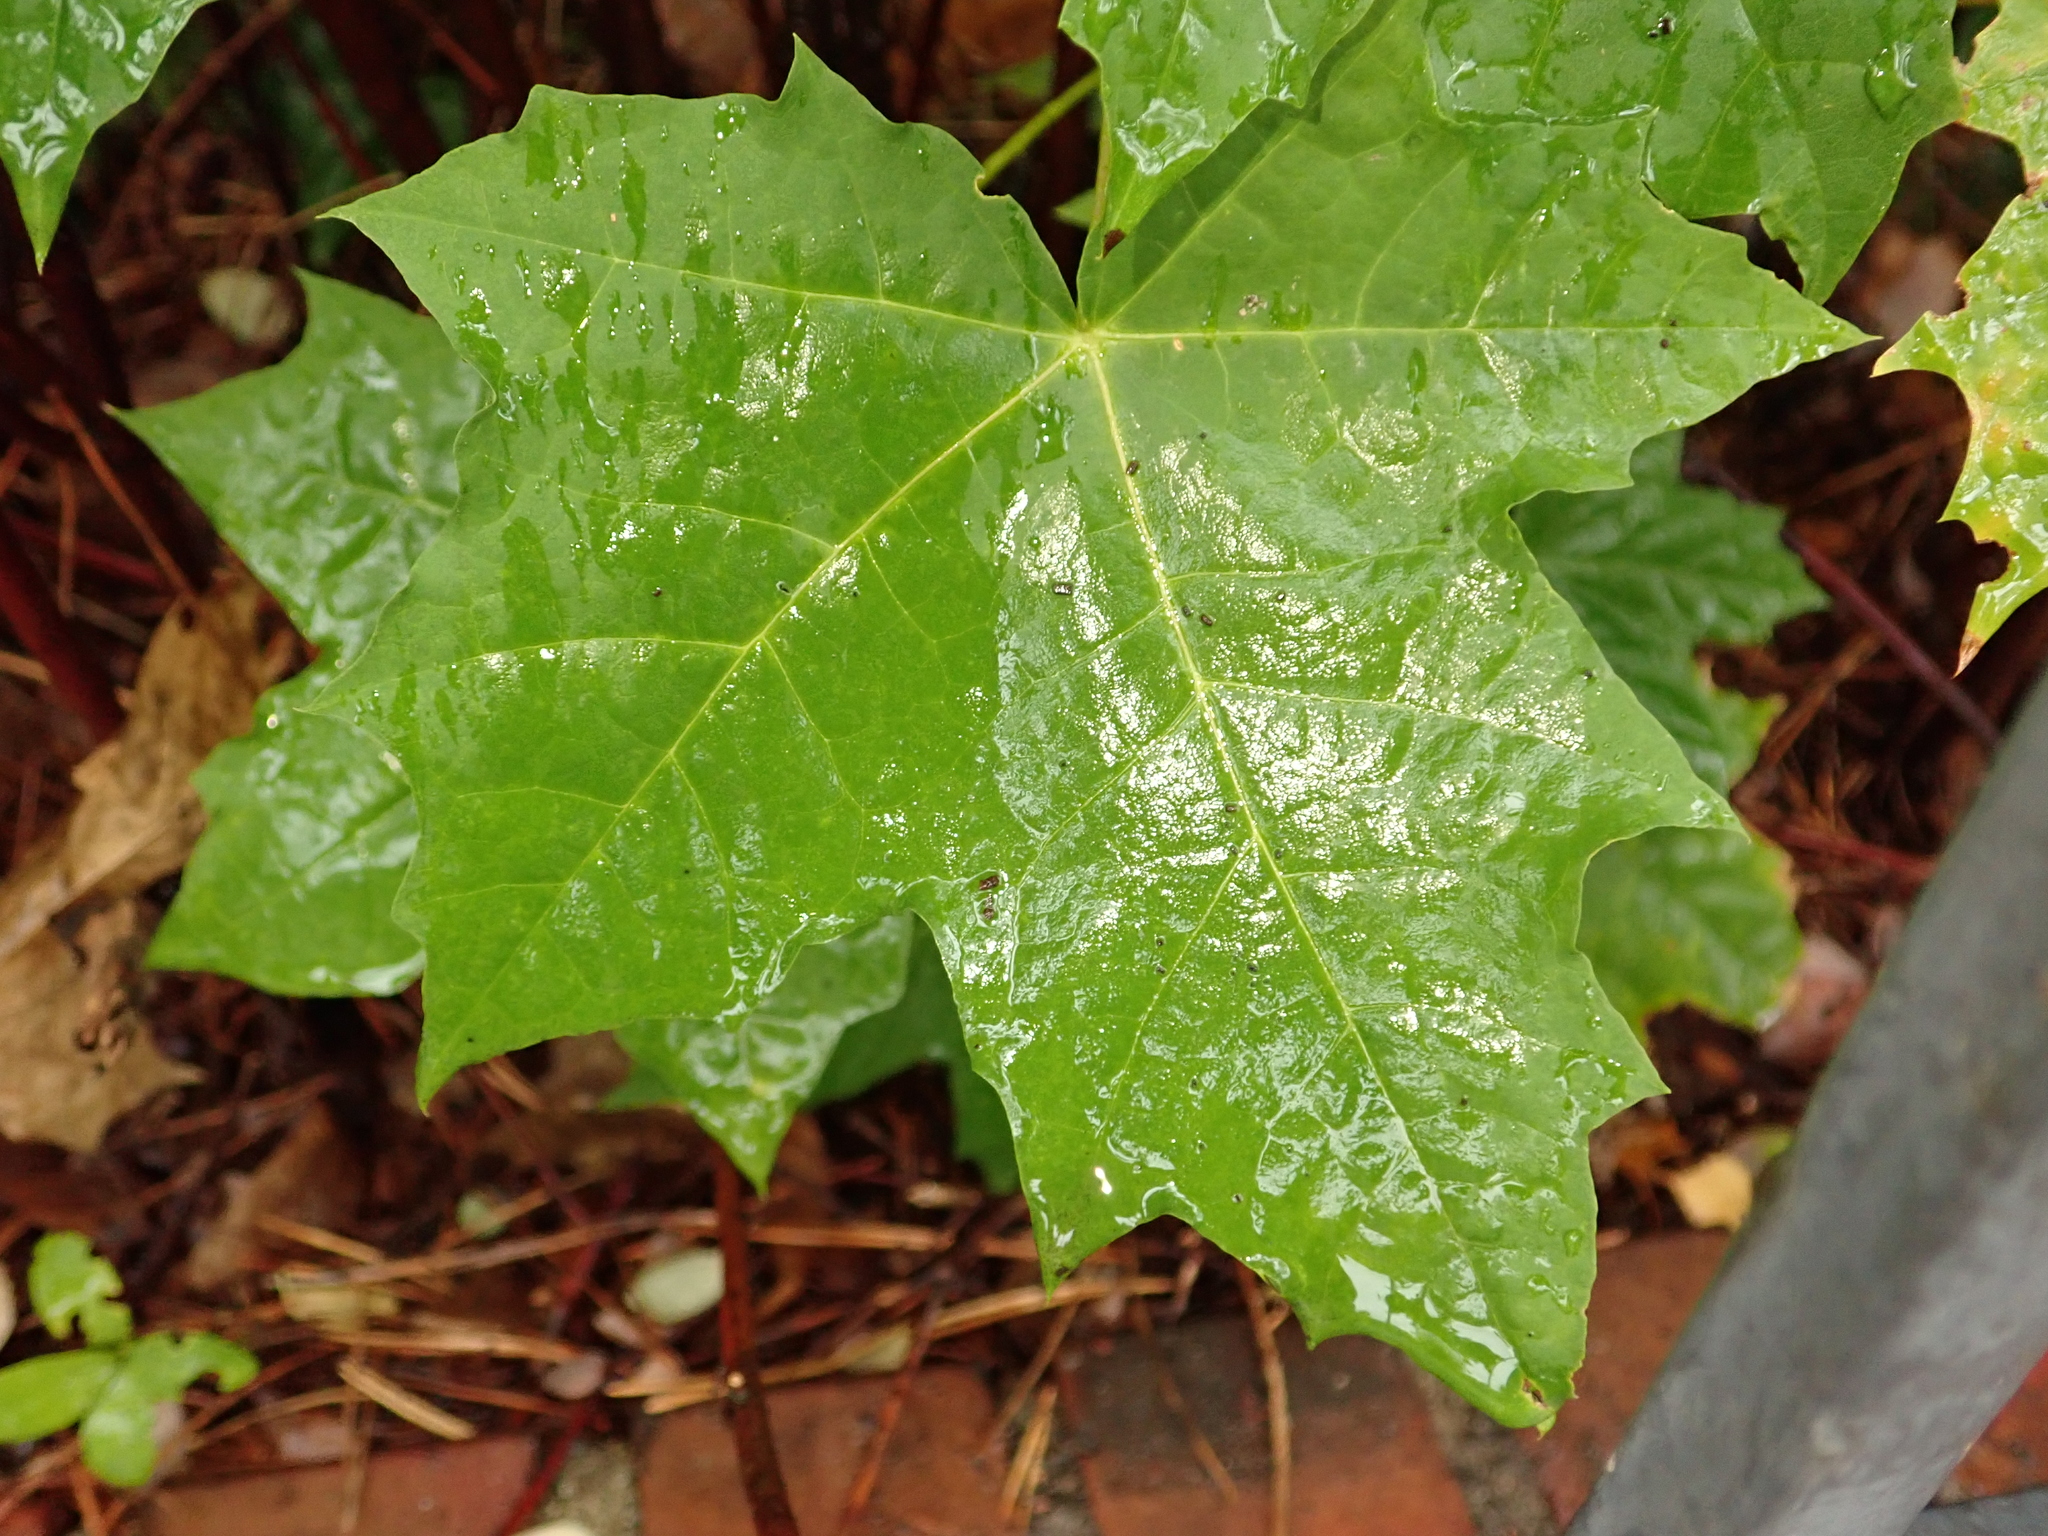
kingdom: Plantae
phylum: Tracheophyta
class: Magnoliopsida
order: Sapindales
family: Sapindaceae
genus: Acer
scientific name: Acer platanoides
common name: Norway maple
